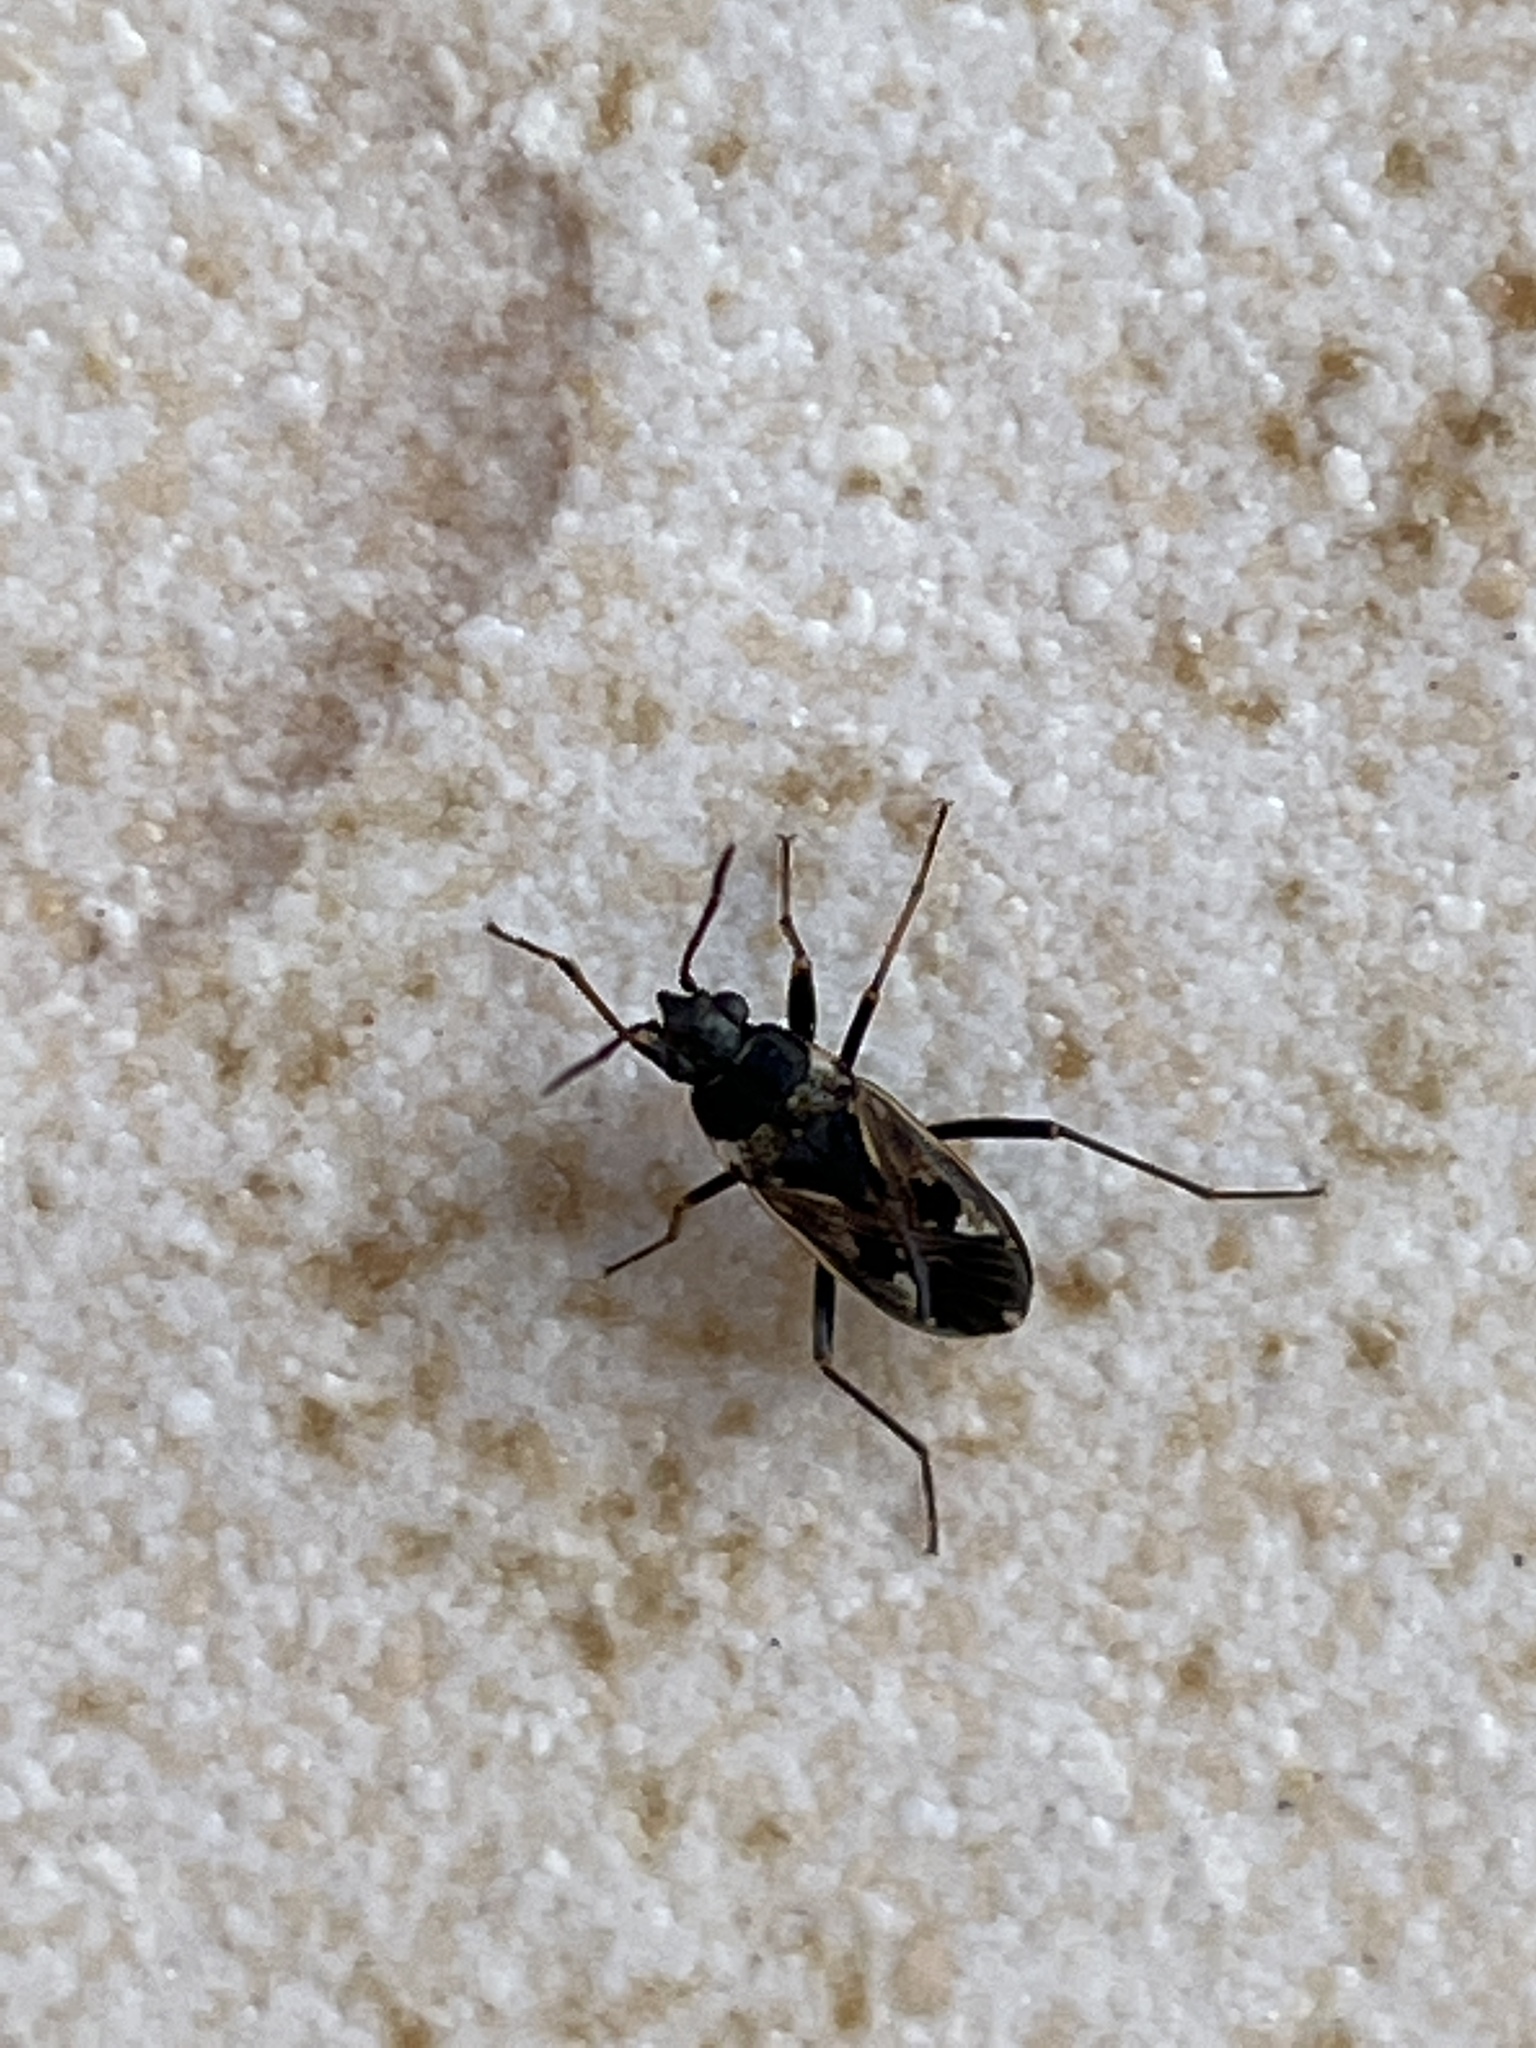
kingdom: Animalia
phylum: Arthropoda
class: Insecta
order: Hemiptera
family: Rhyparochromidae
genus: Rhyparochromus
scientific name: Rhyparochromus vulgaris
